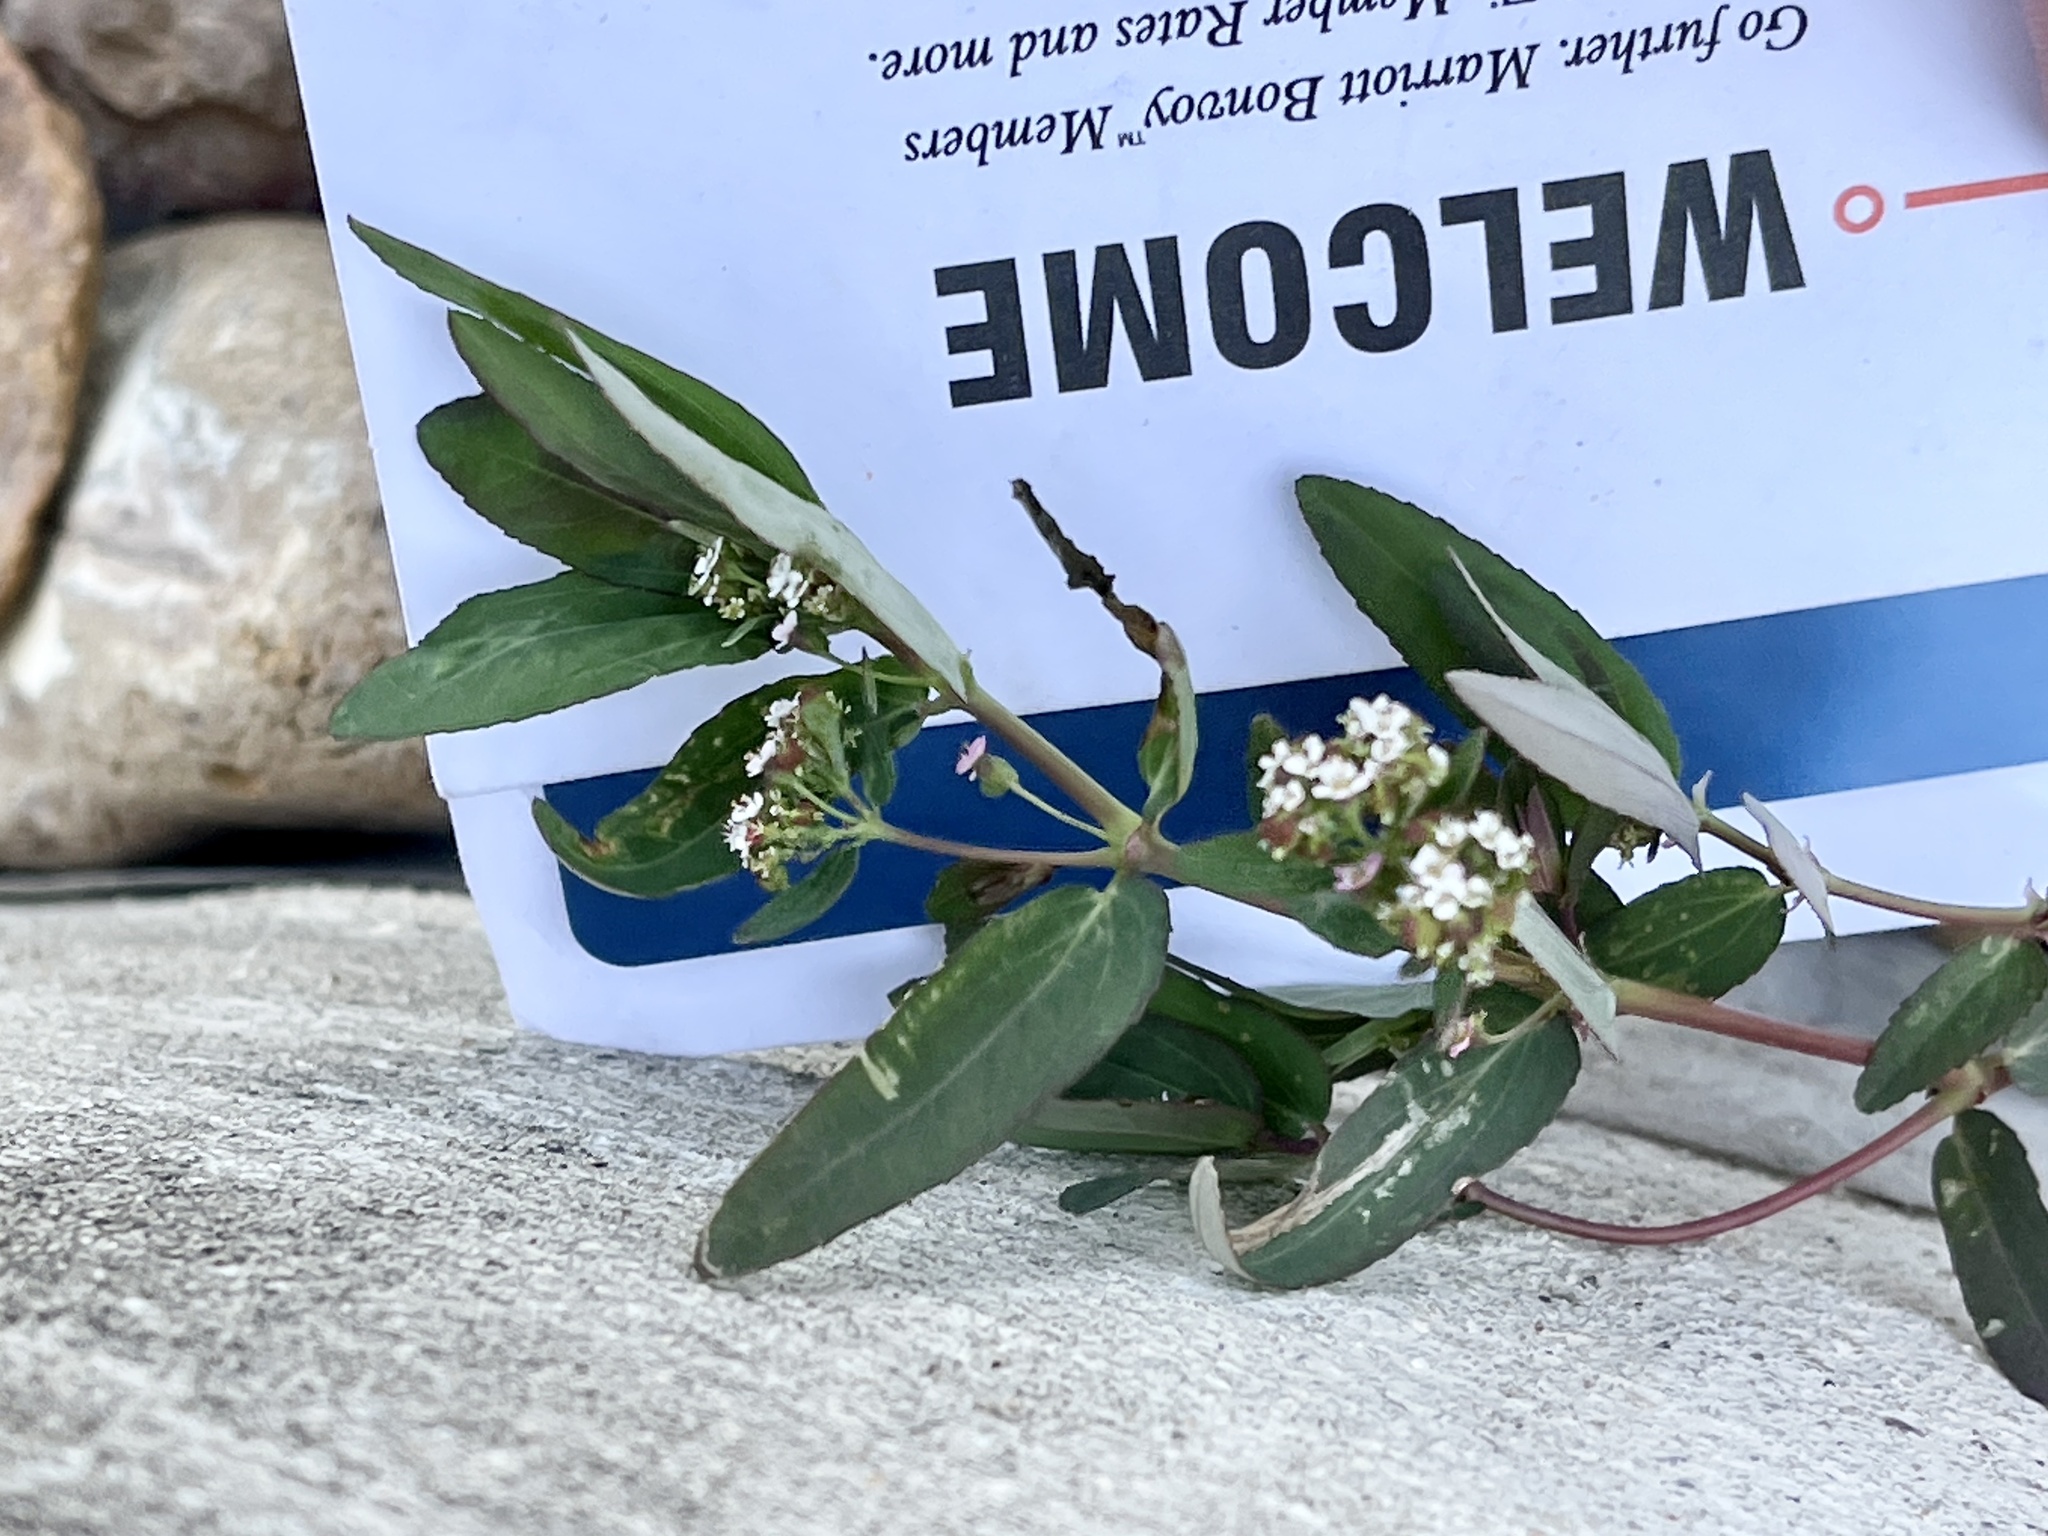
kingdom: Plantae
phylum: Tracheophyta
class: Magnoliopsida
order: Malpighiales
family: Euphorbiaceae
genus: Euphorbia
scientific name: Euphorbia hypericifolia
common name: Graceful sandmat
